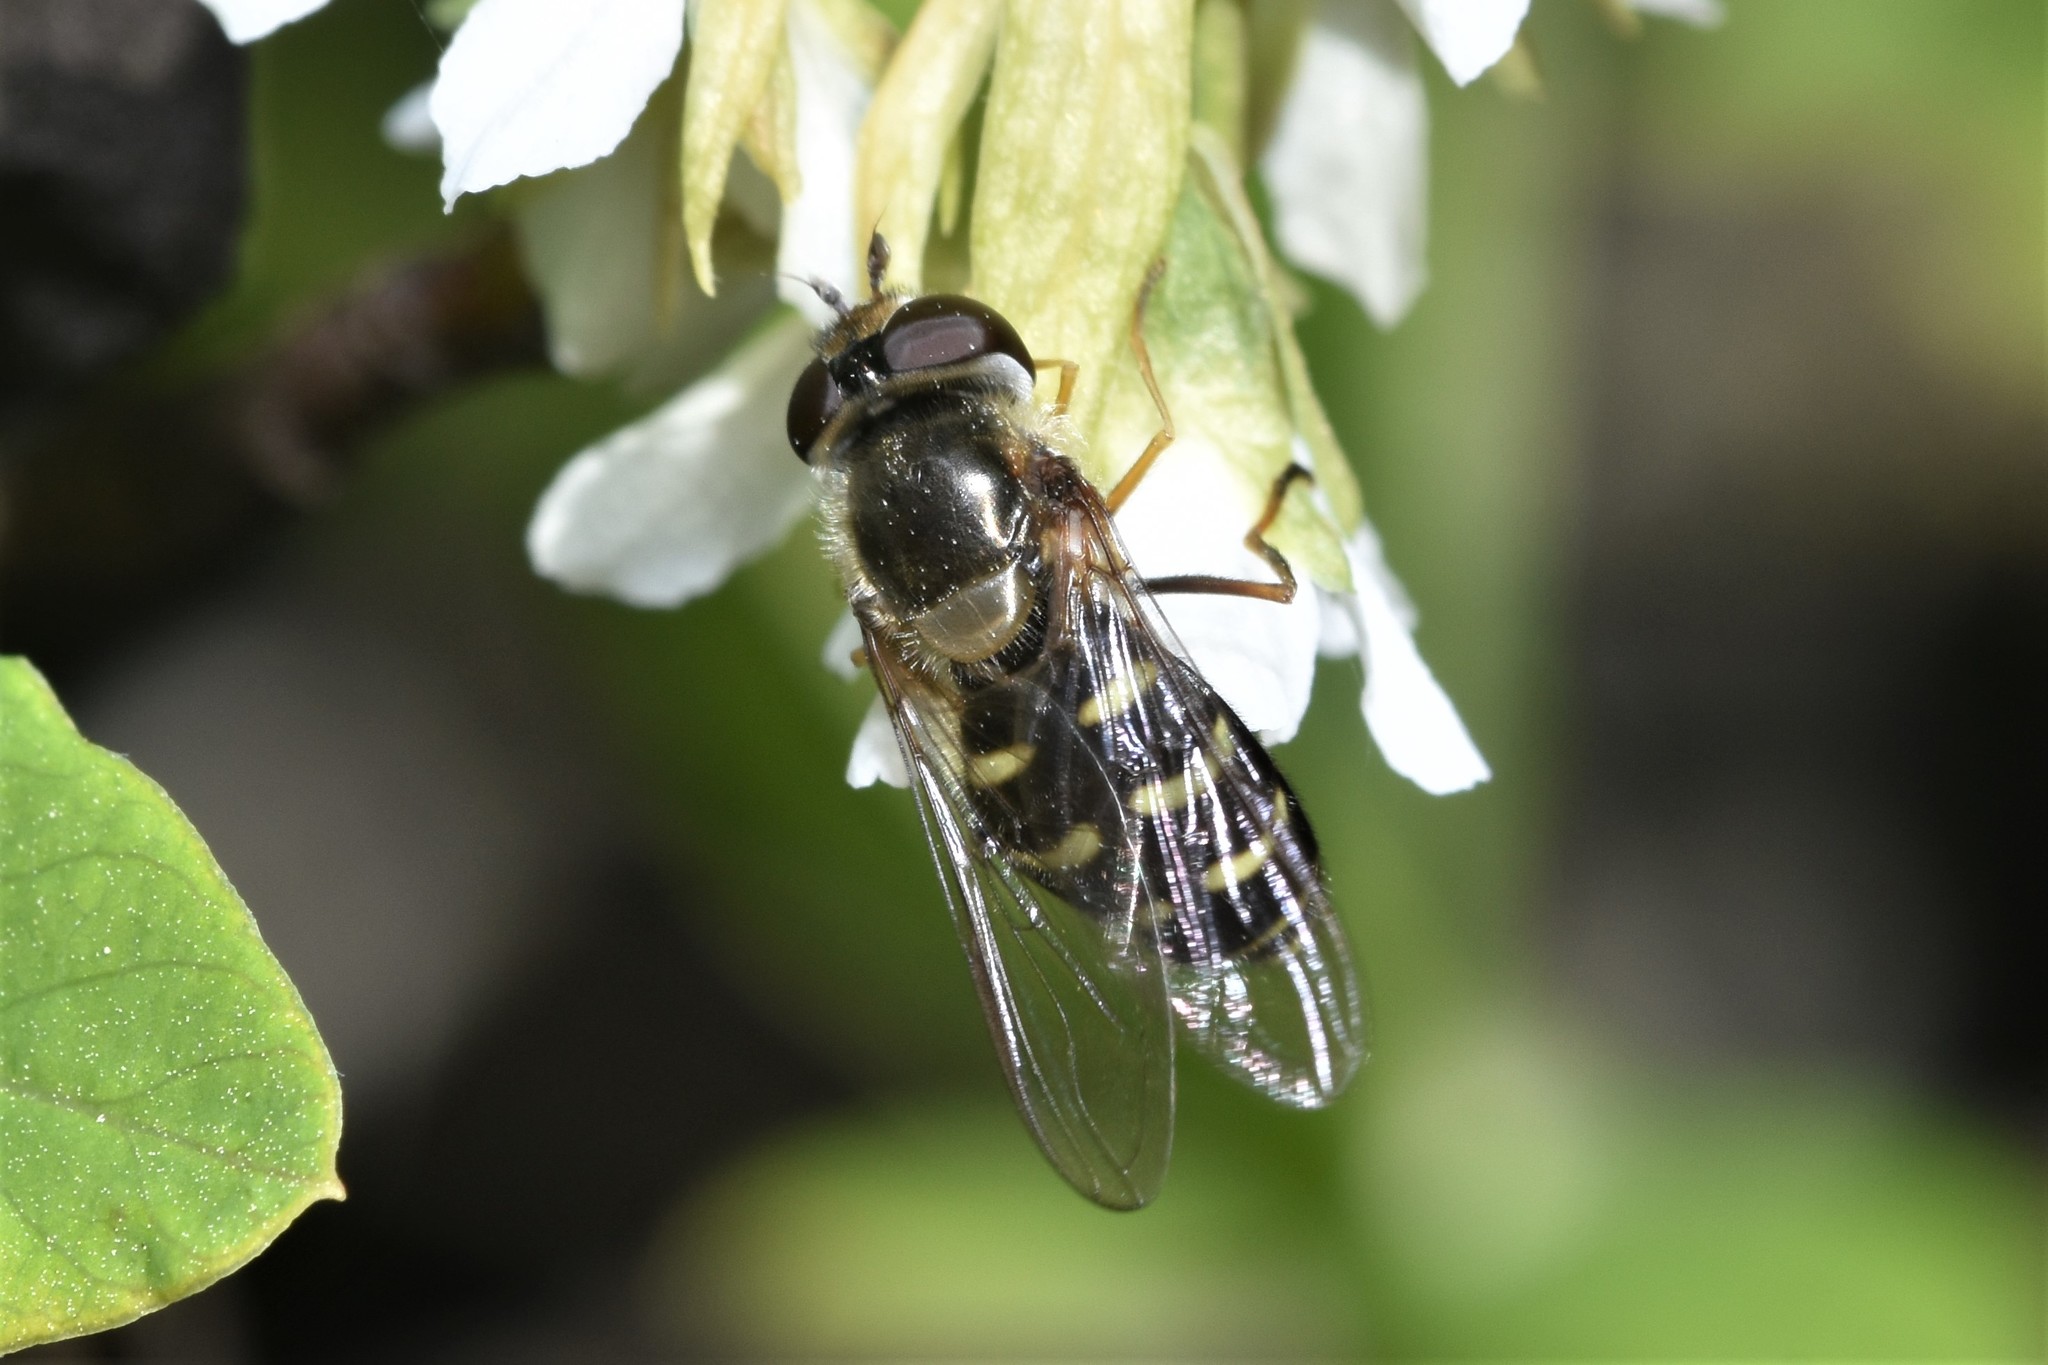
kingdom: Animalia
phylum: Arthropoda
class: Insecta
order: Diptera
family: Syrphidae
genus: Lapposyrphus
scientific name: Lapposyrphus lapponicus
